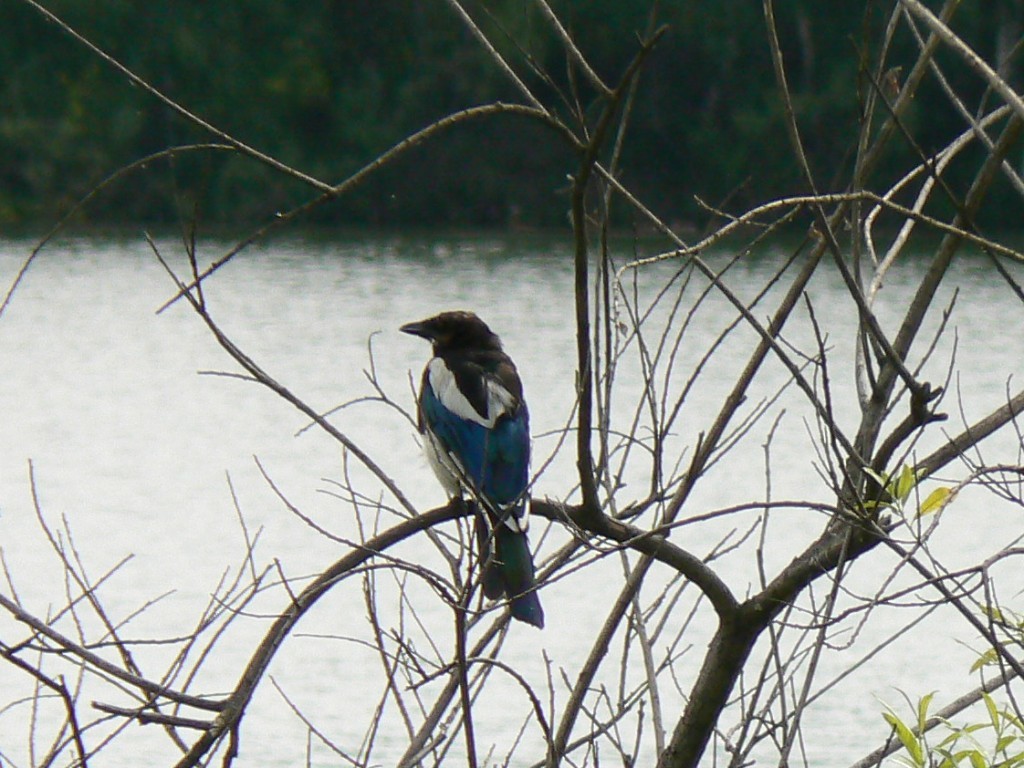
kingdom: Animalia
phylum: Chordata
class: Aves
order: Passeriformes
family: Corvidae
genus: Pica
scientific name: Pica pica
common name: Eurasian magpie
